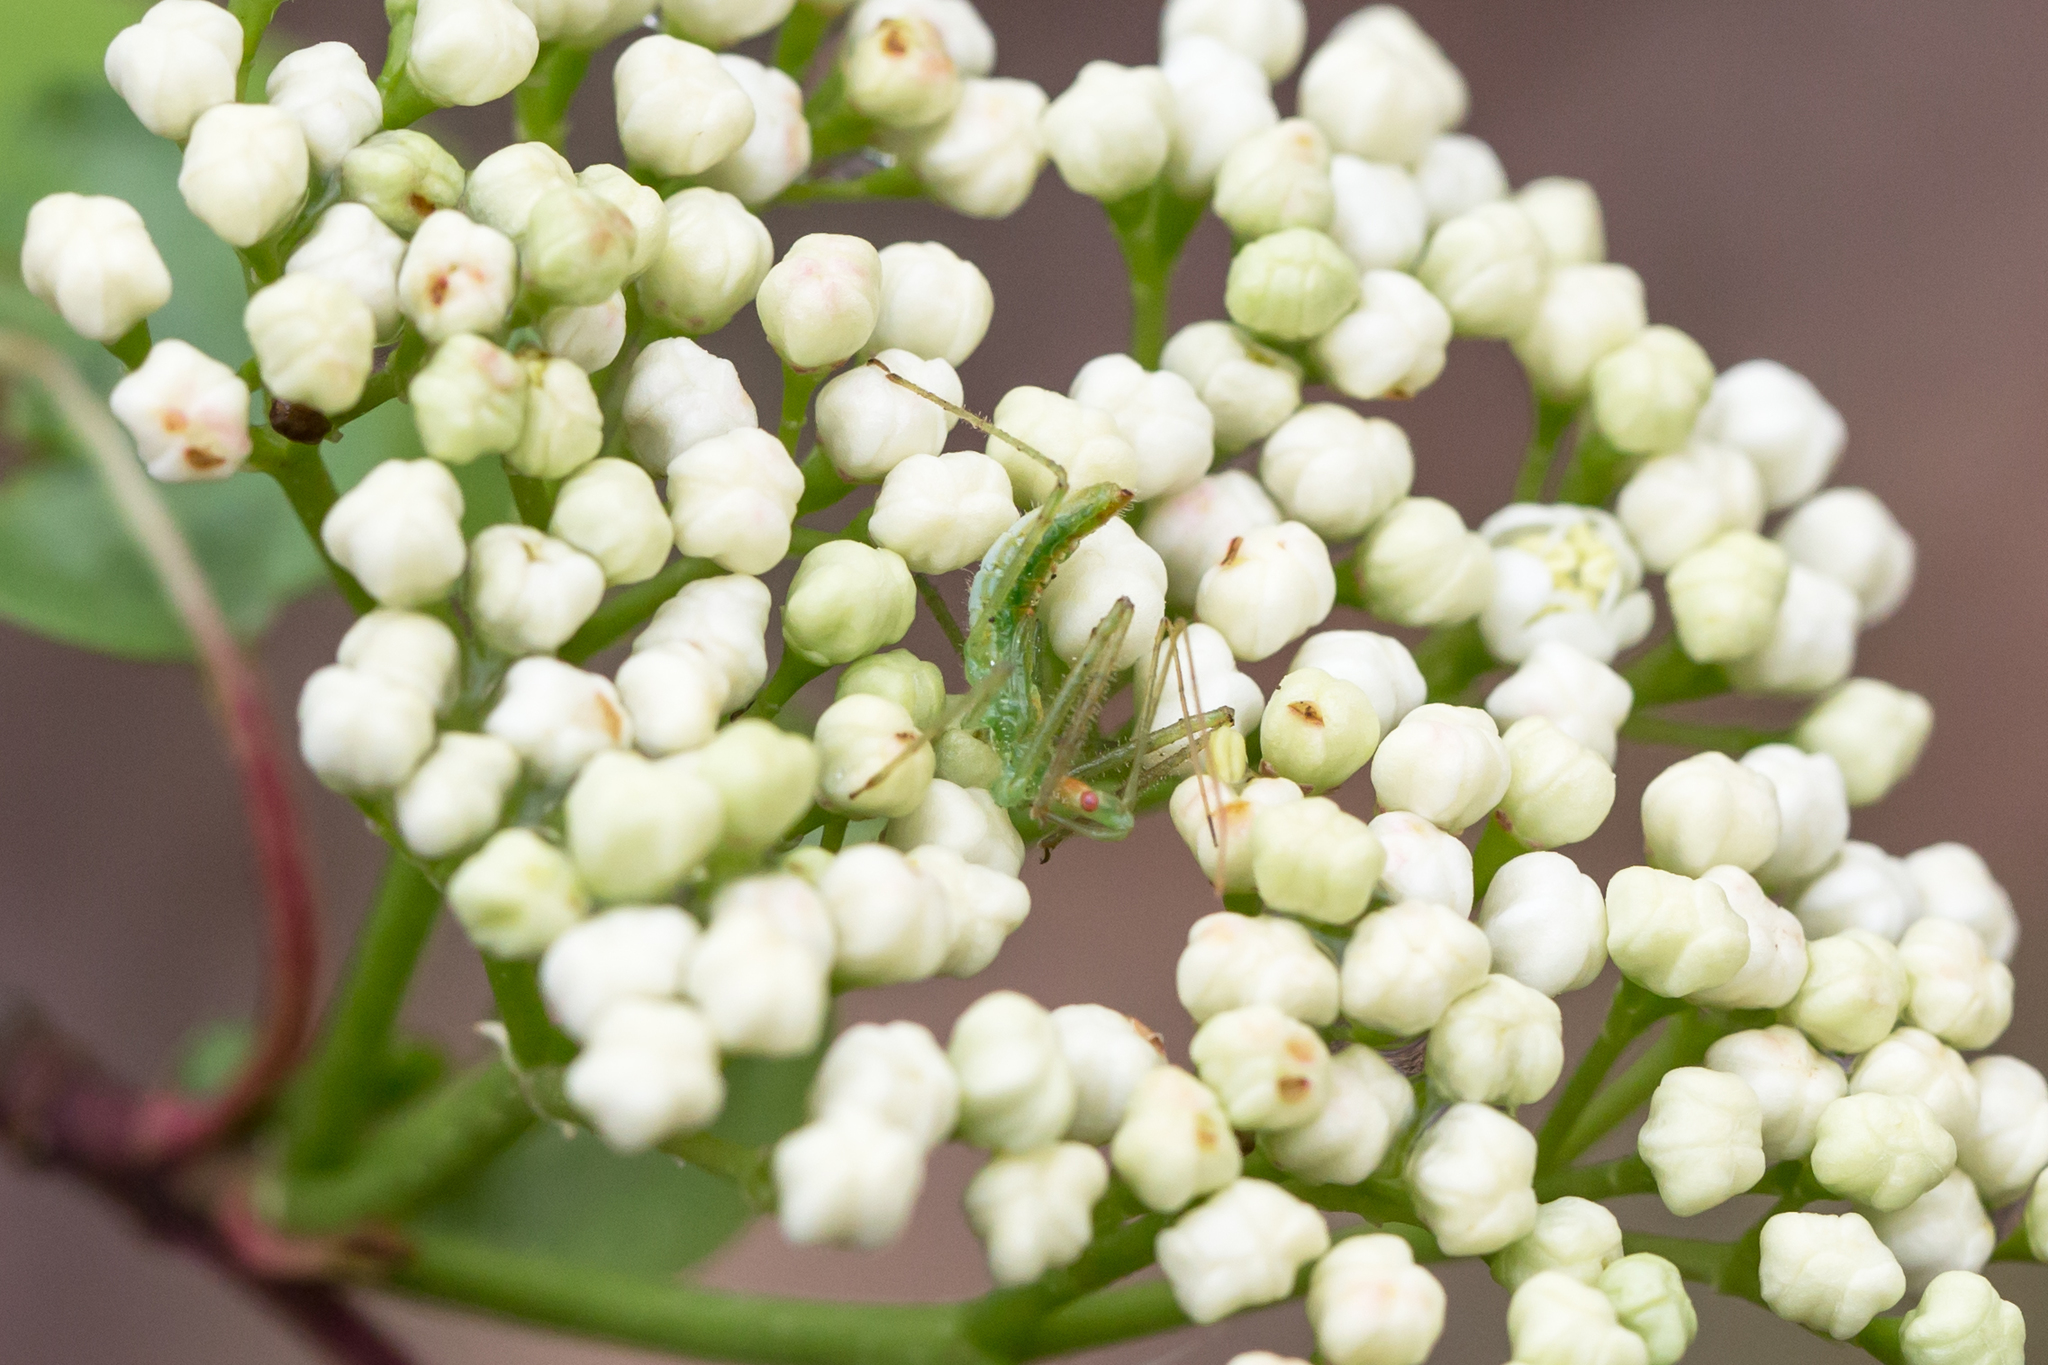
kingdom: Animalia
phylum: Arthropoda
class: Insecta
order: Hemiptera
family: Reduviidae
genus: Zelus
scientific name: Zelus luridus
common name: Pale green assassin bug
